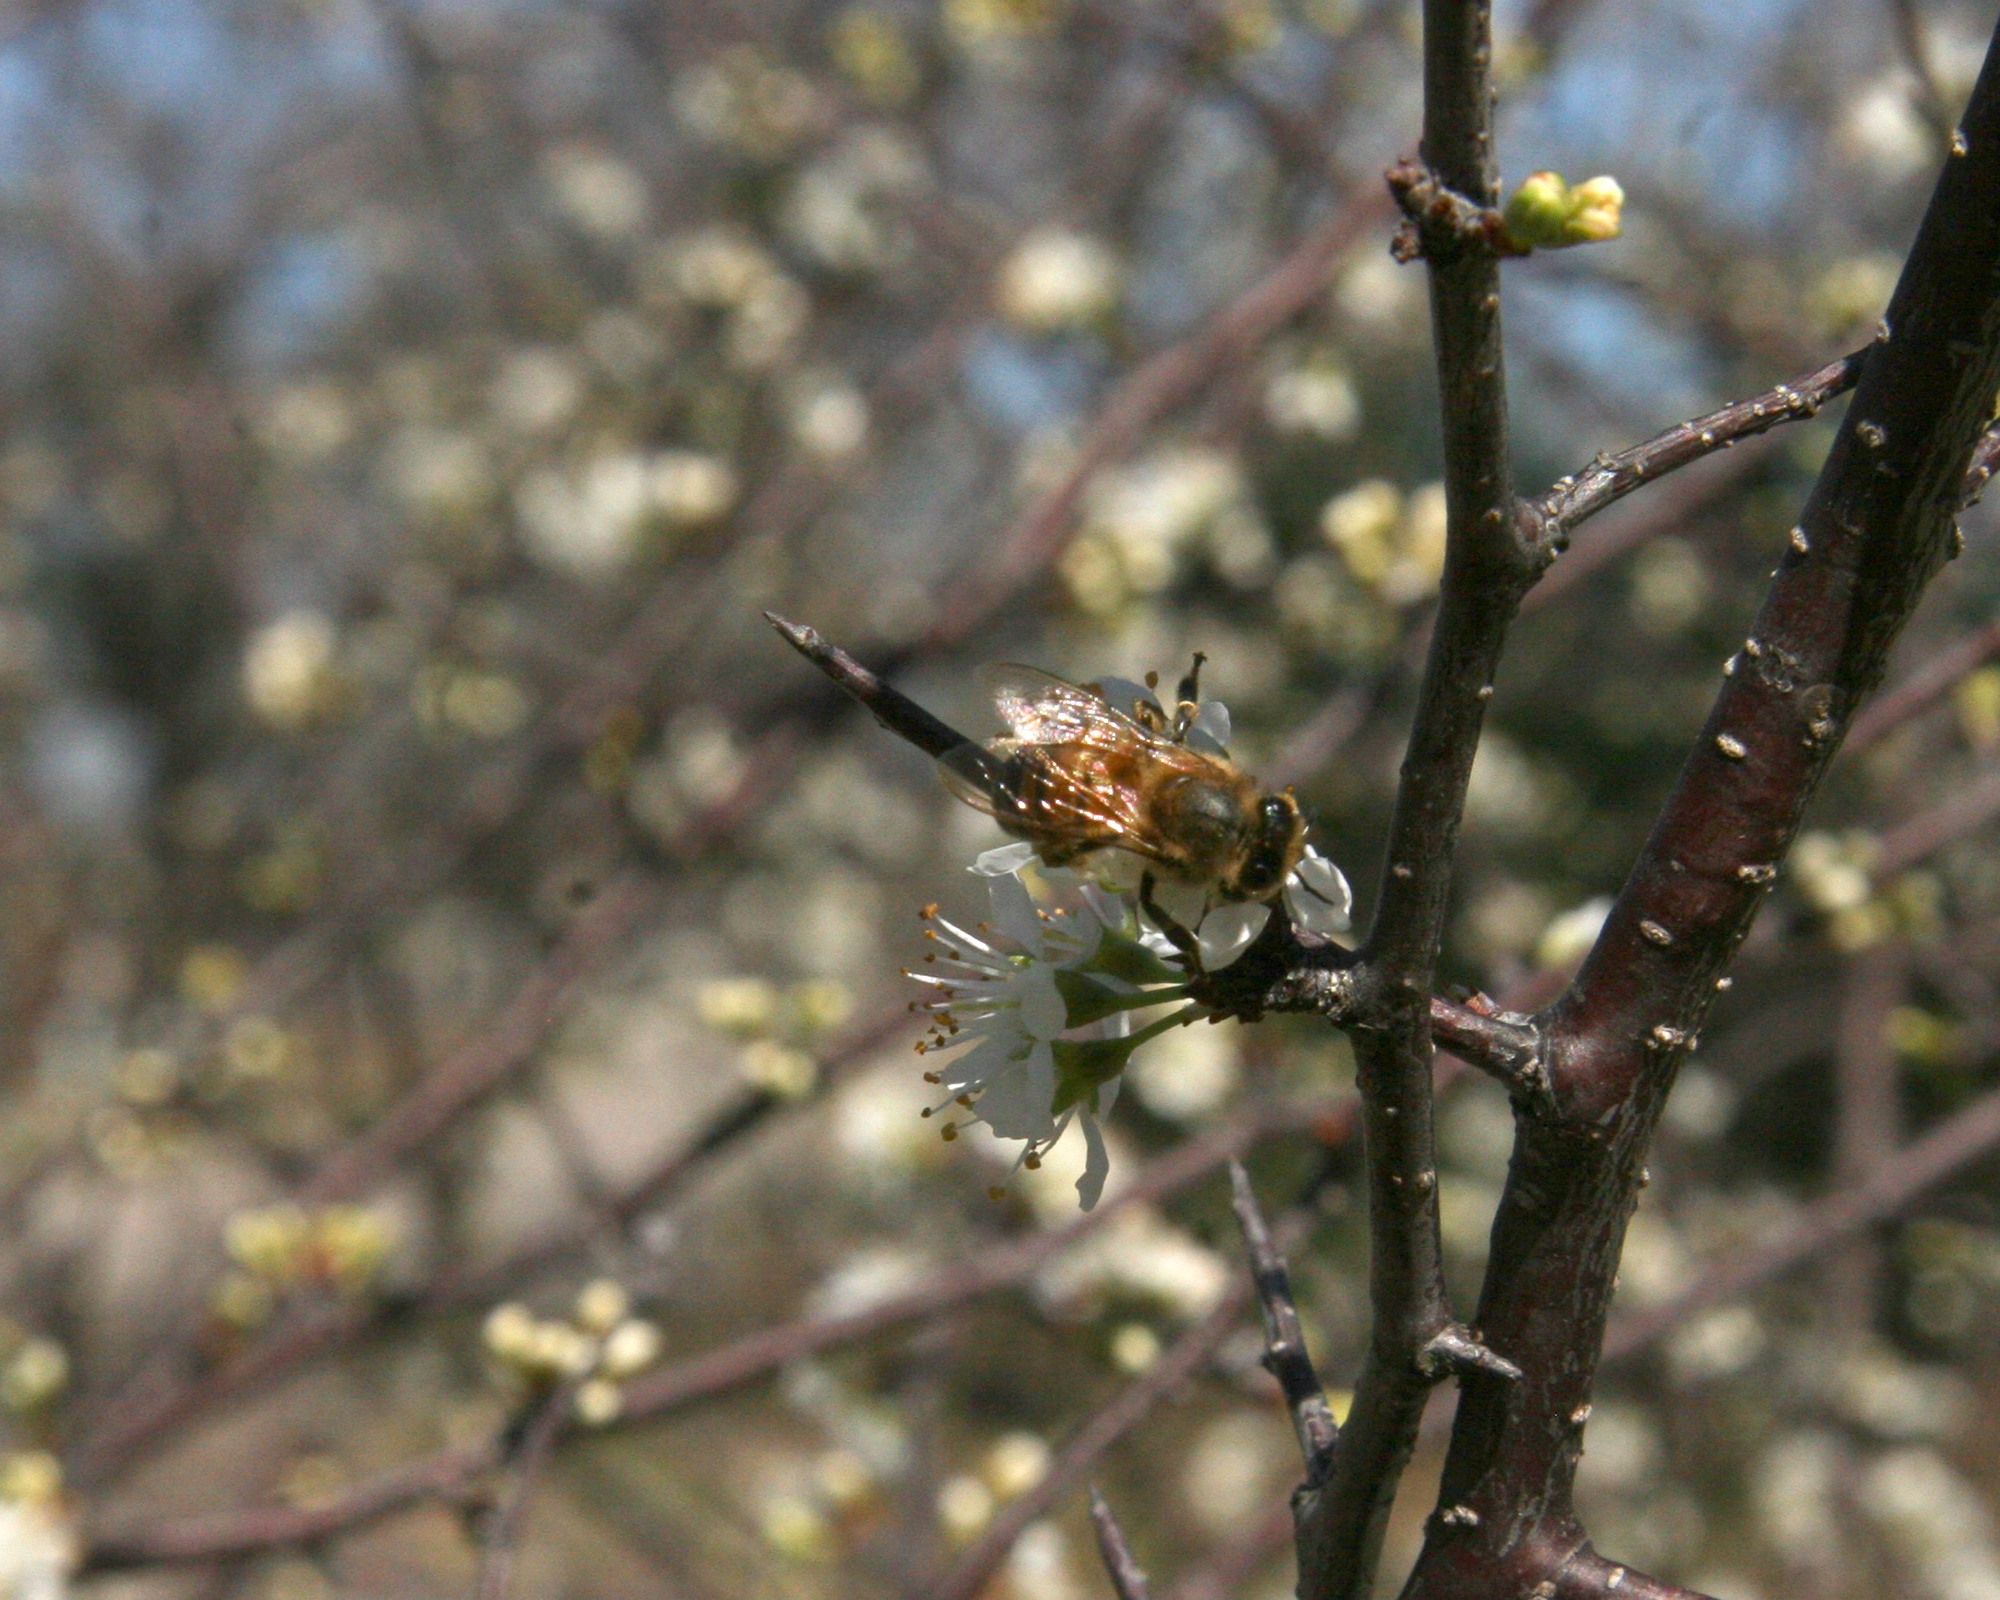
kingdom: Animalia
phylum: Arthropoda
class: Insecta
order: Hymenoptera
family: Apidae
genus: Apis
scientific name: Apis mellifera
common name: Honey bee
